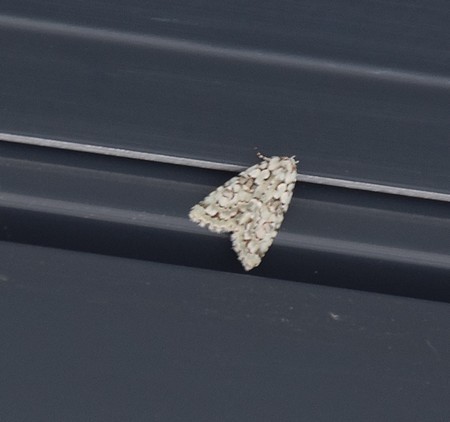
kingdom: Animalia
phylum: Arthropoda
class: Insecta
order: Lepidoptera
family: Noctuidae
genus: Nyctobrya
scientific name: Nyctobrya muralis
